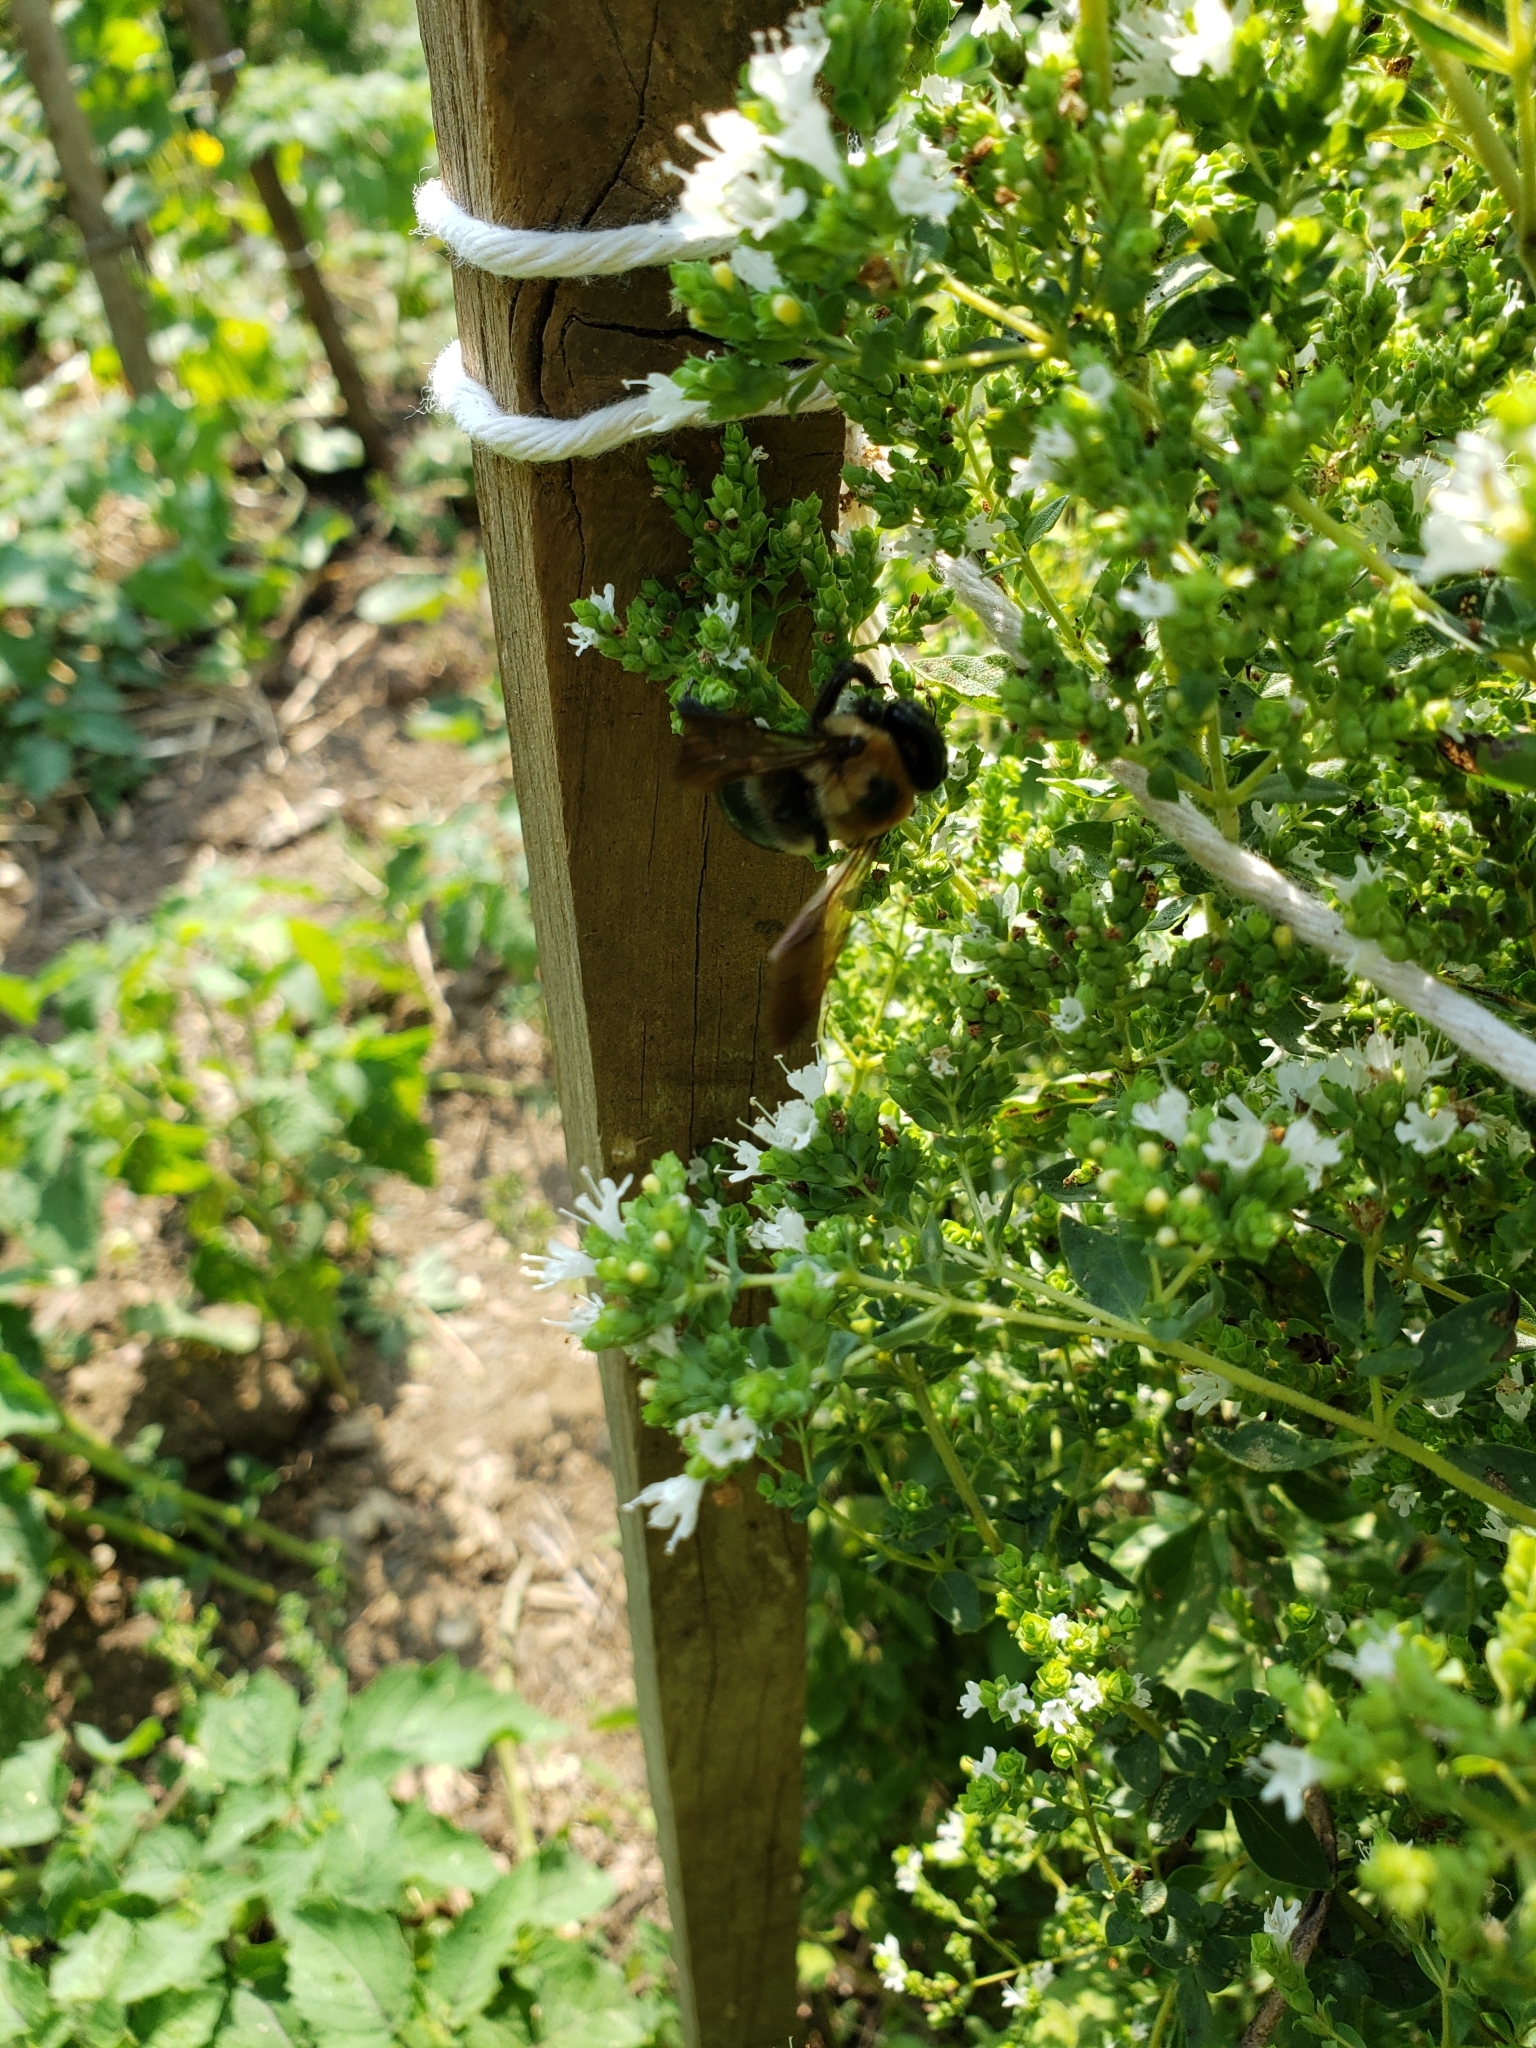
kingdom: Animalia
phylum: Arthropoda
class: Insecta
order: Hymenoptera
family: Apidae
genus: Xylocopa
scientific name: Xylocopa virginica
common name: Carpenter bee
